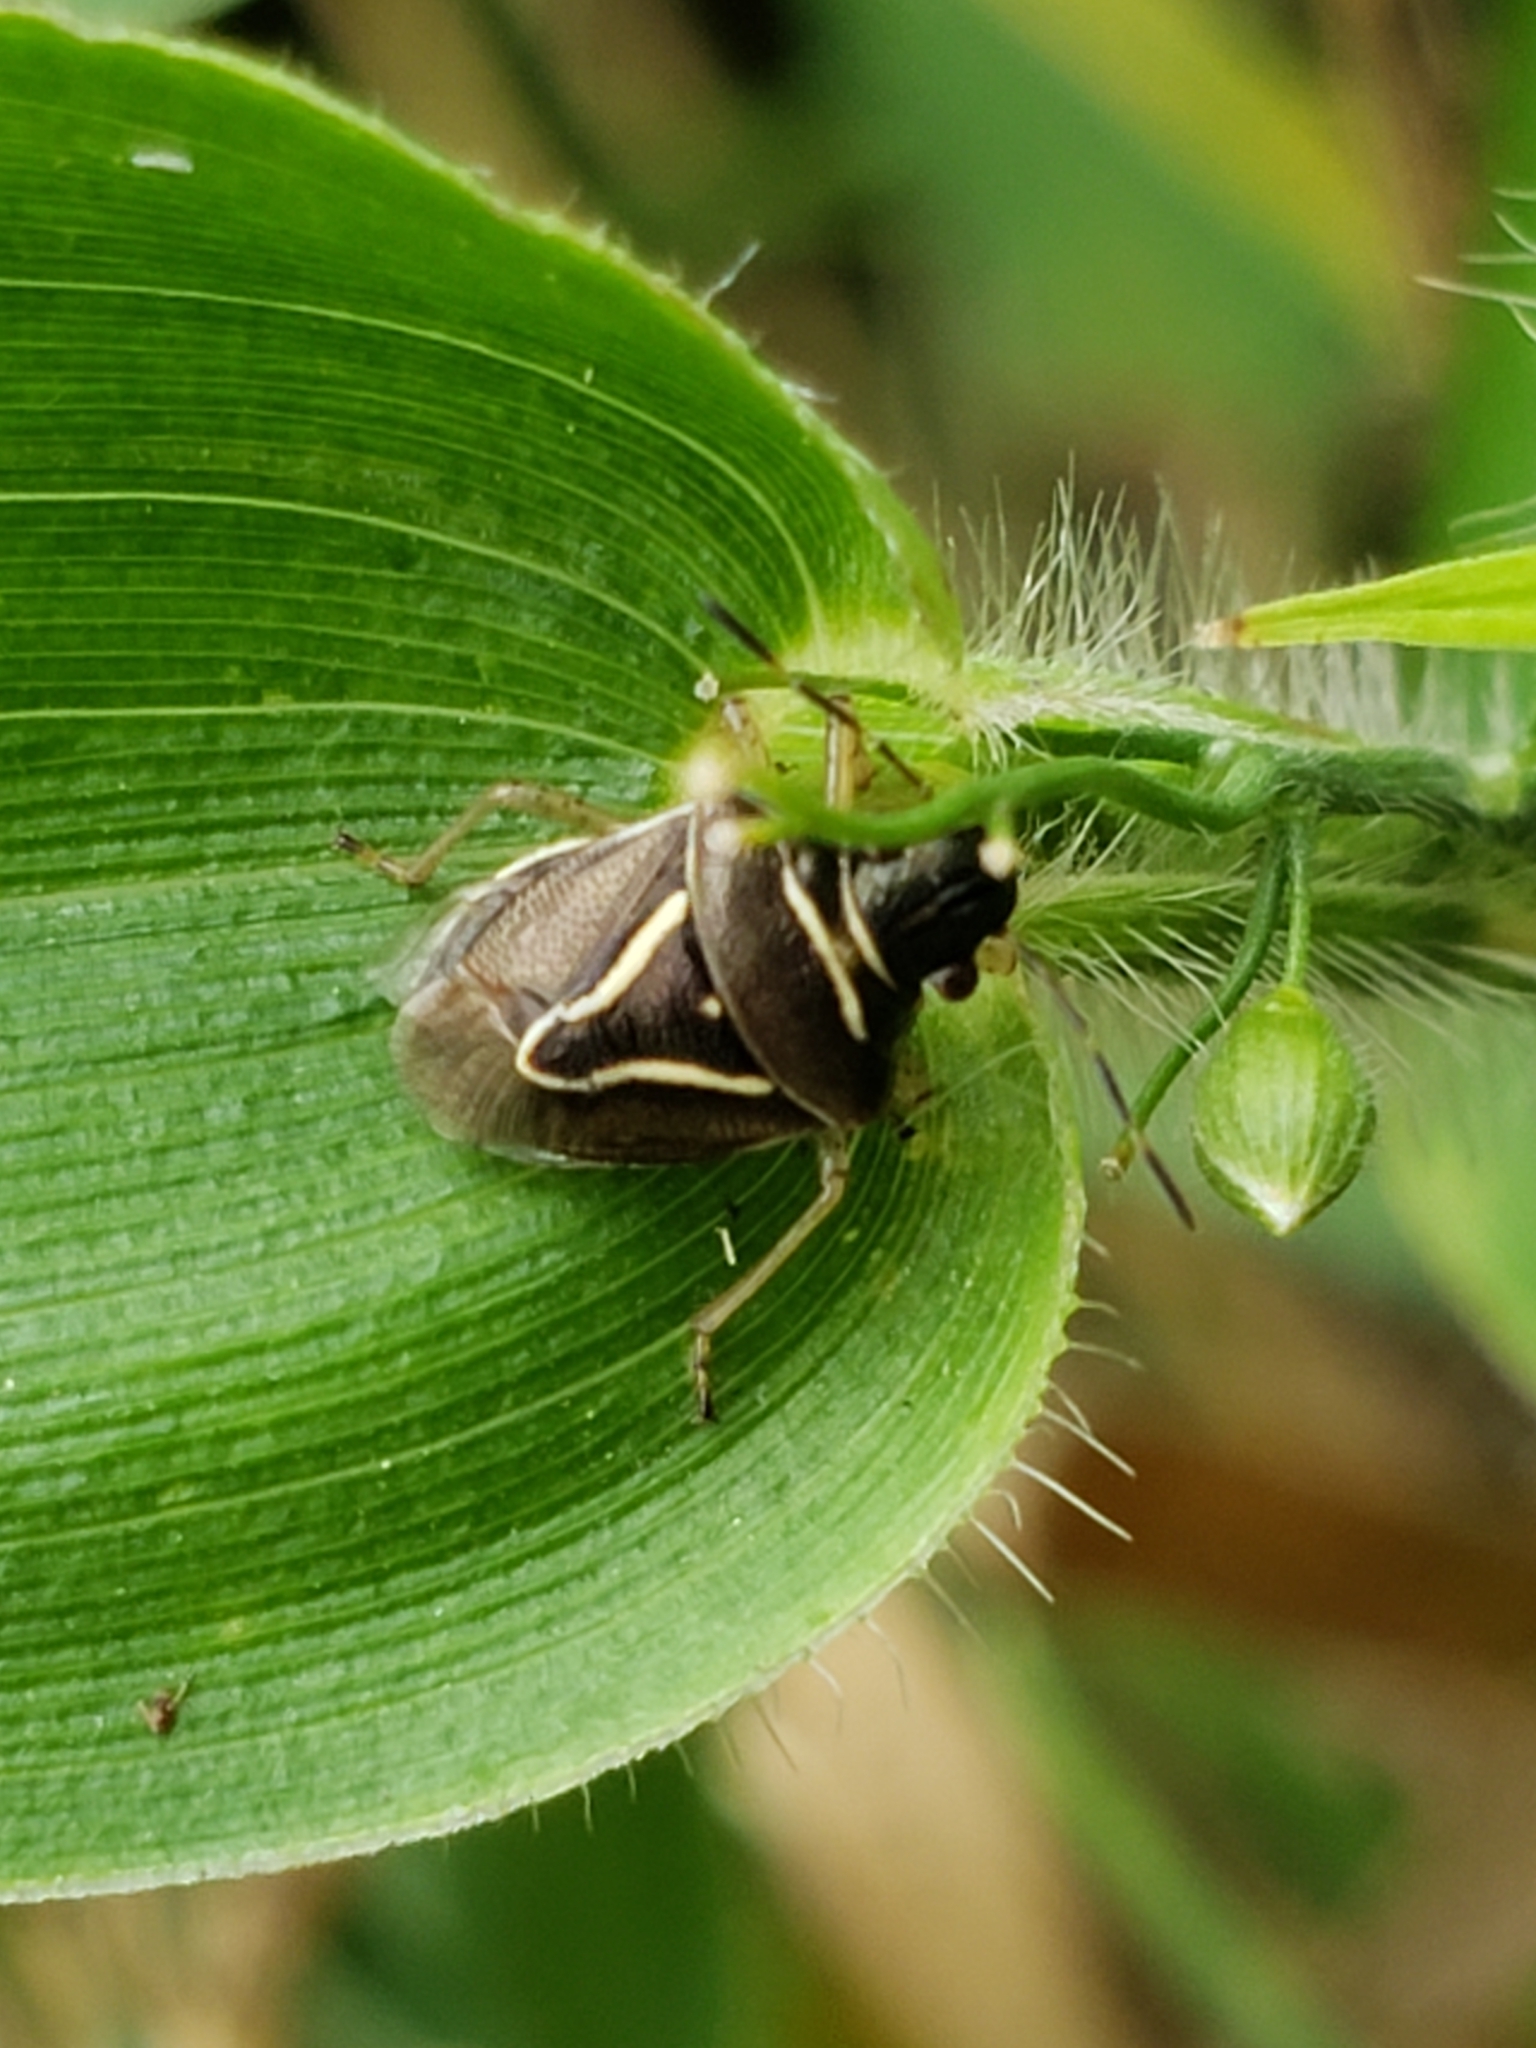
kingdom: Animalia
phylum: Arthropoda
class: Insecta
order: Hemiptera
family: Pentatomidae
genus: Mormidea
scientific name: Mormidea lugens
